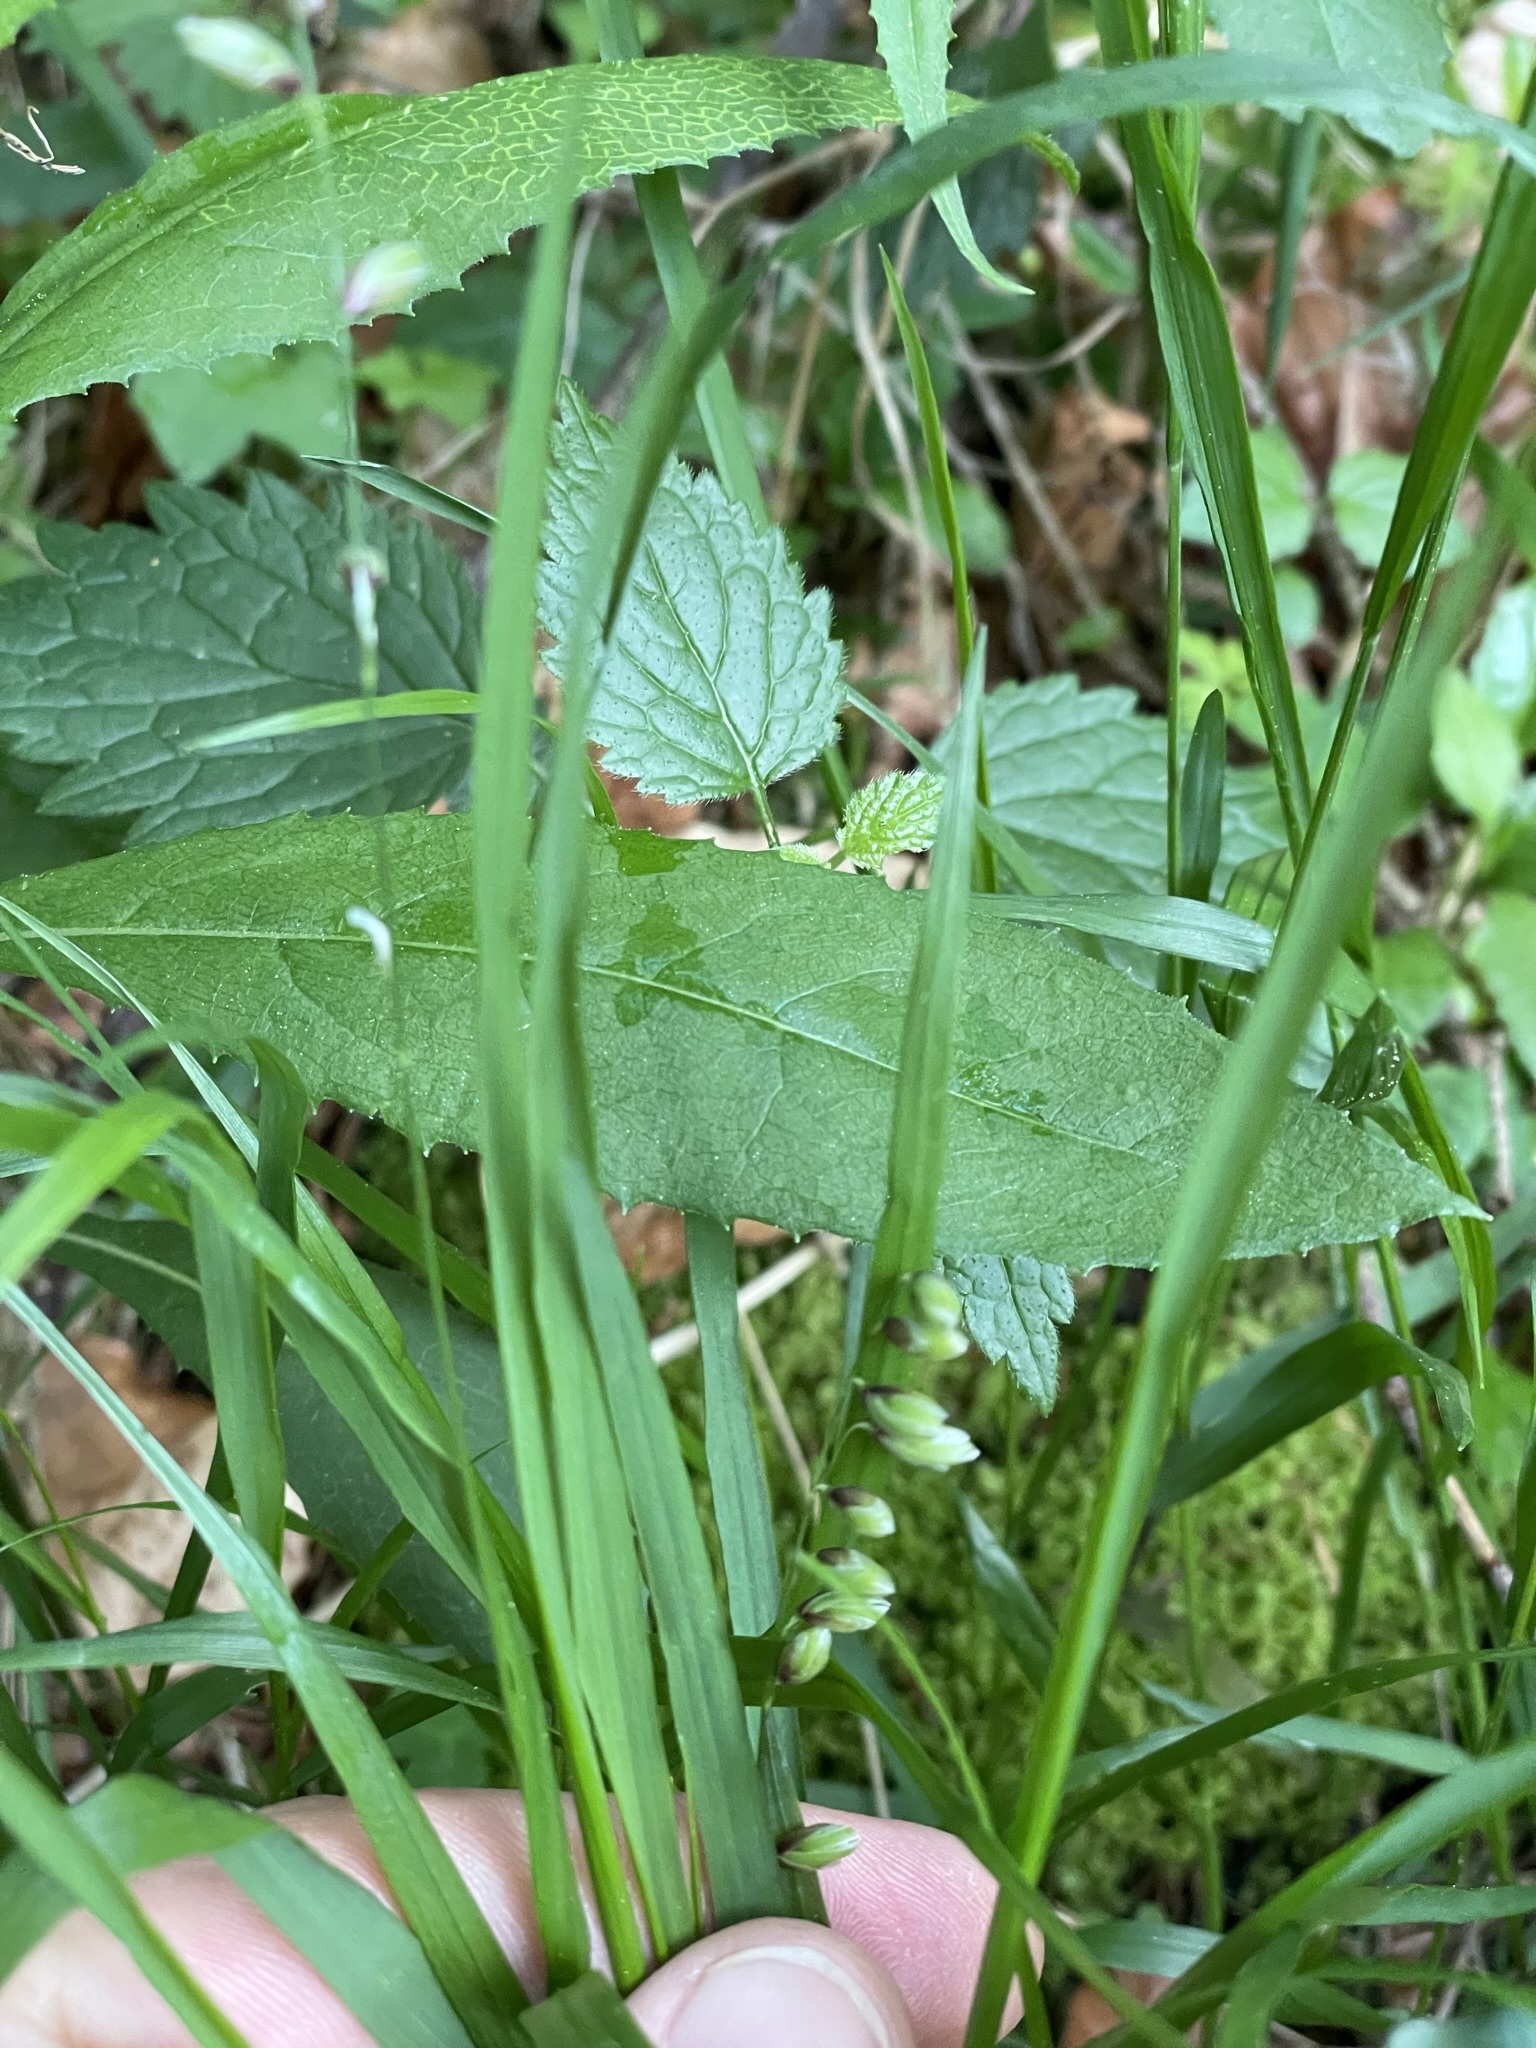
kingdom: Plantae
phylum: Tracheophyta
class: Liliopsida
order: Poales
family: Poaceae
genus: Melica
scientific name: Melica nutans
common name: Mountain melick
